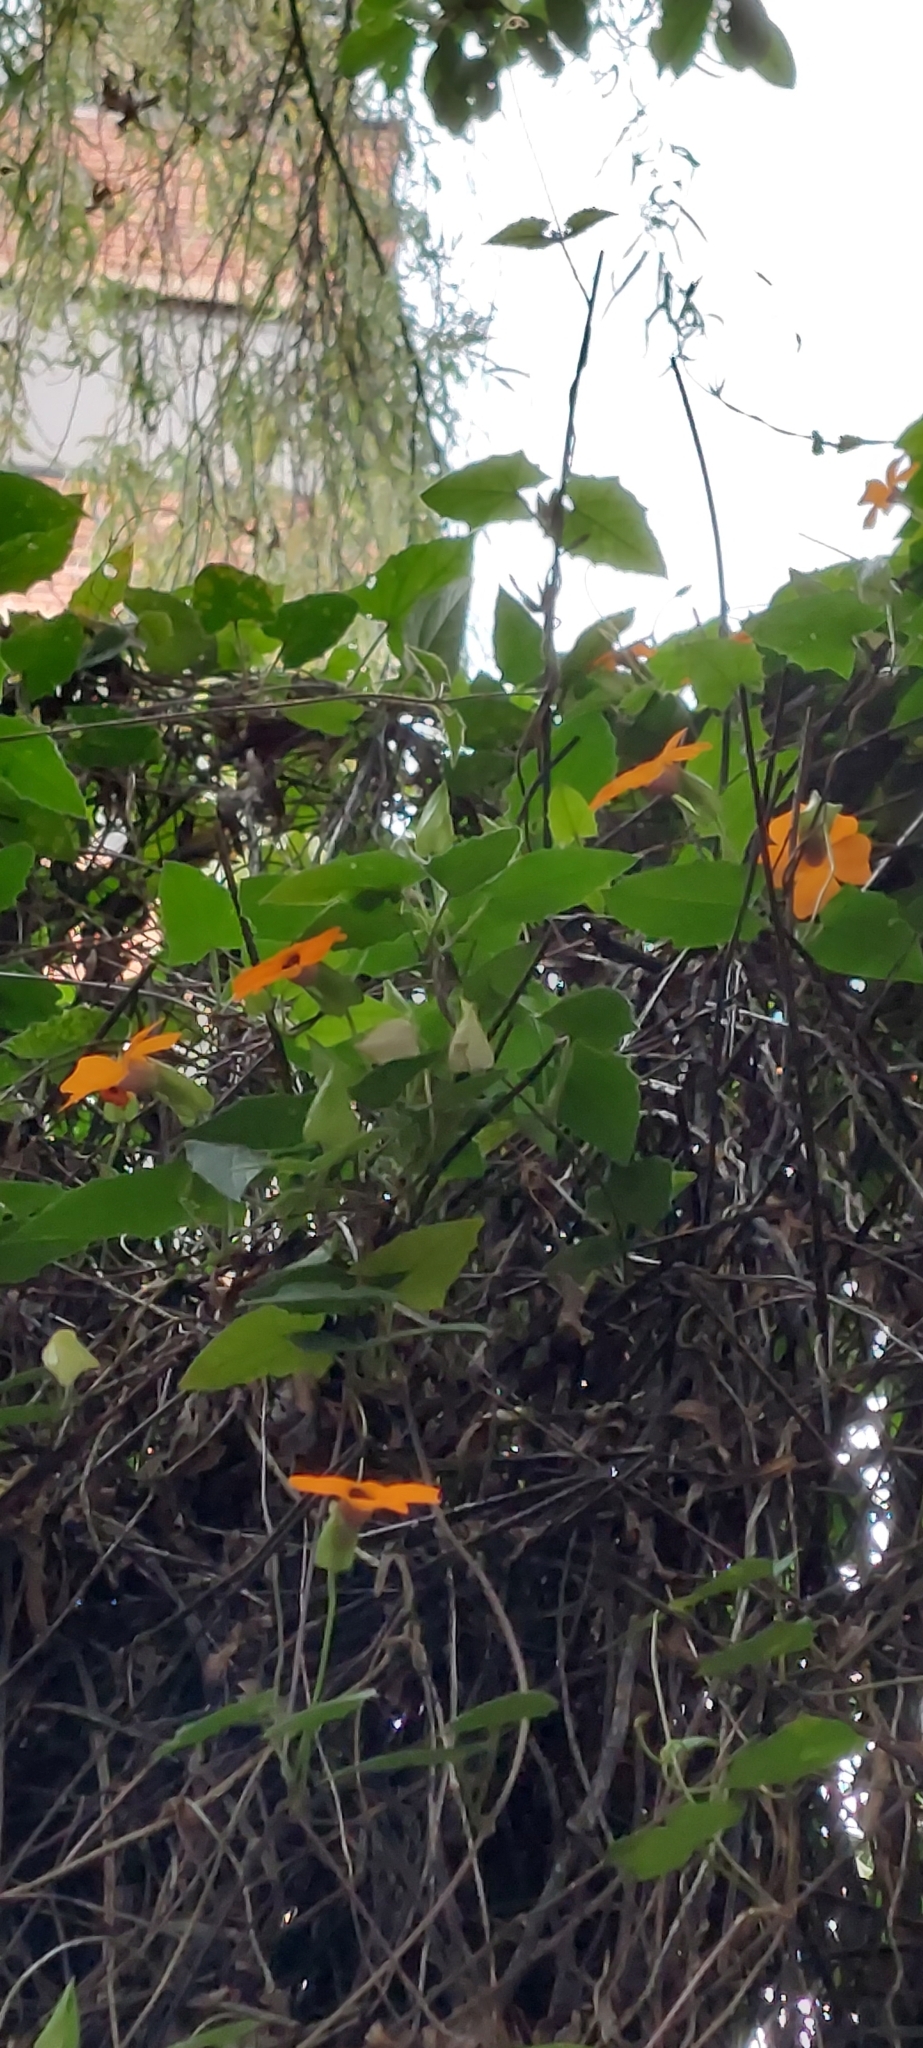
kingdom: Plantae
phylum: Tracheophyta
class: Magnoliopsida
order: Lamiales
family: Acanthaceae
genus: Thunbergia
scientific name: Thunbergia alata
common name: Blackeyed susan vine
